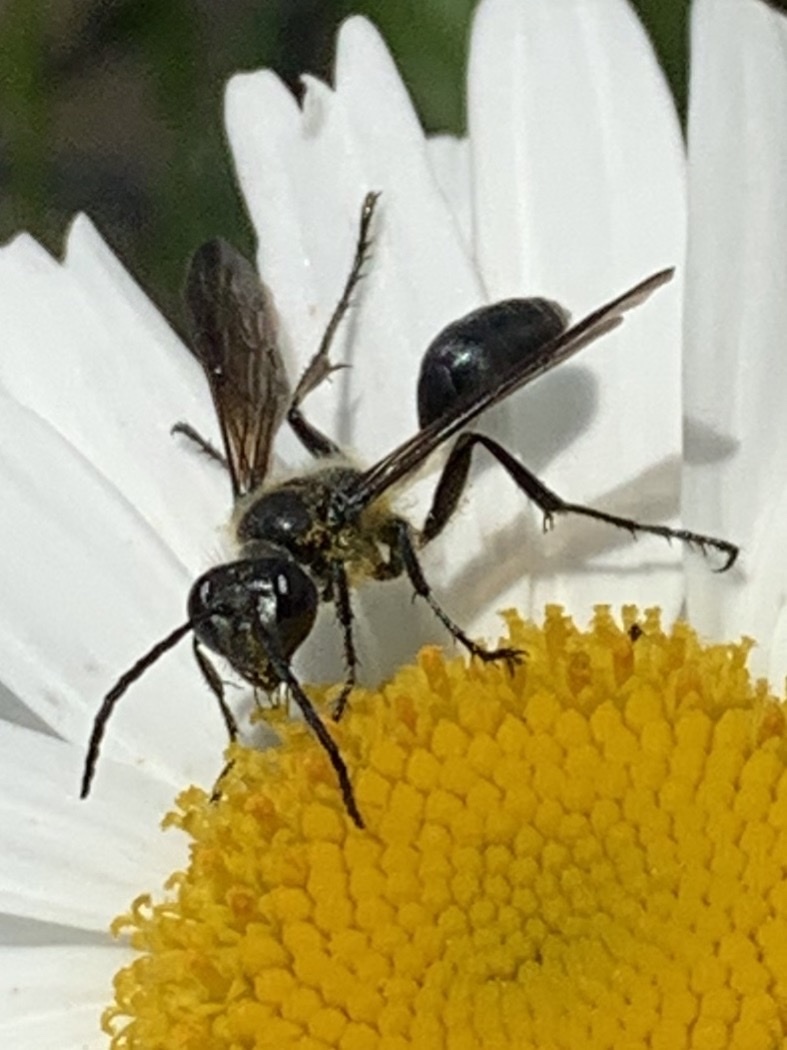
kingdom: Animalia
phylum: Arthropoda
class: Insecta
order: Hymenoptera
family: Sphecidae
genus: Isodontia
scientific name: Isodontia mexicana
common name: Mud dauber
